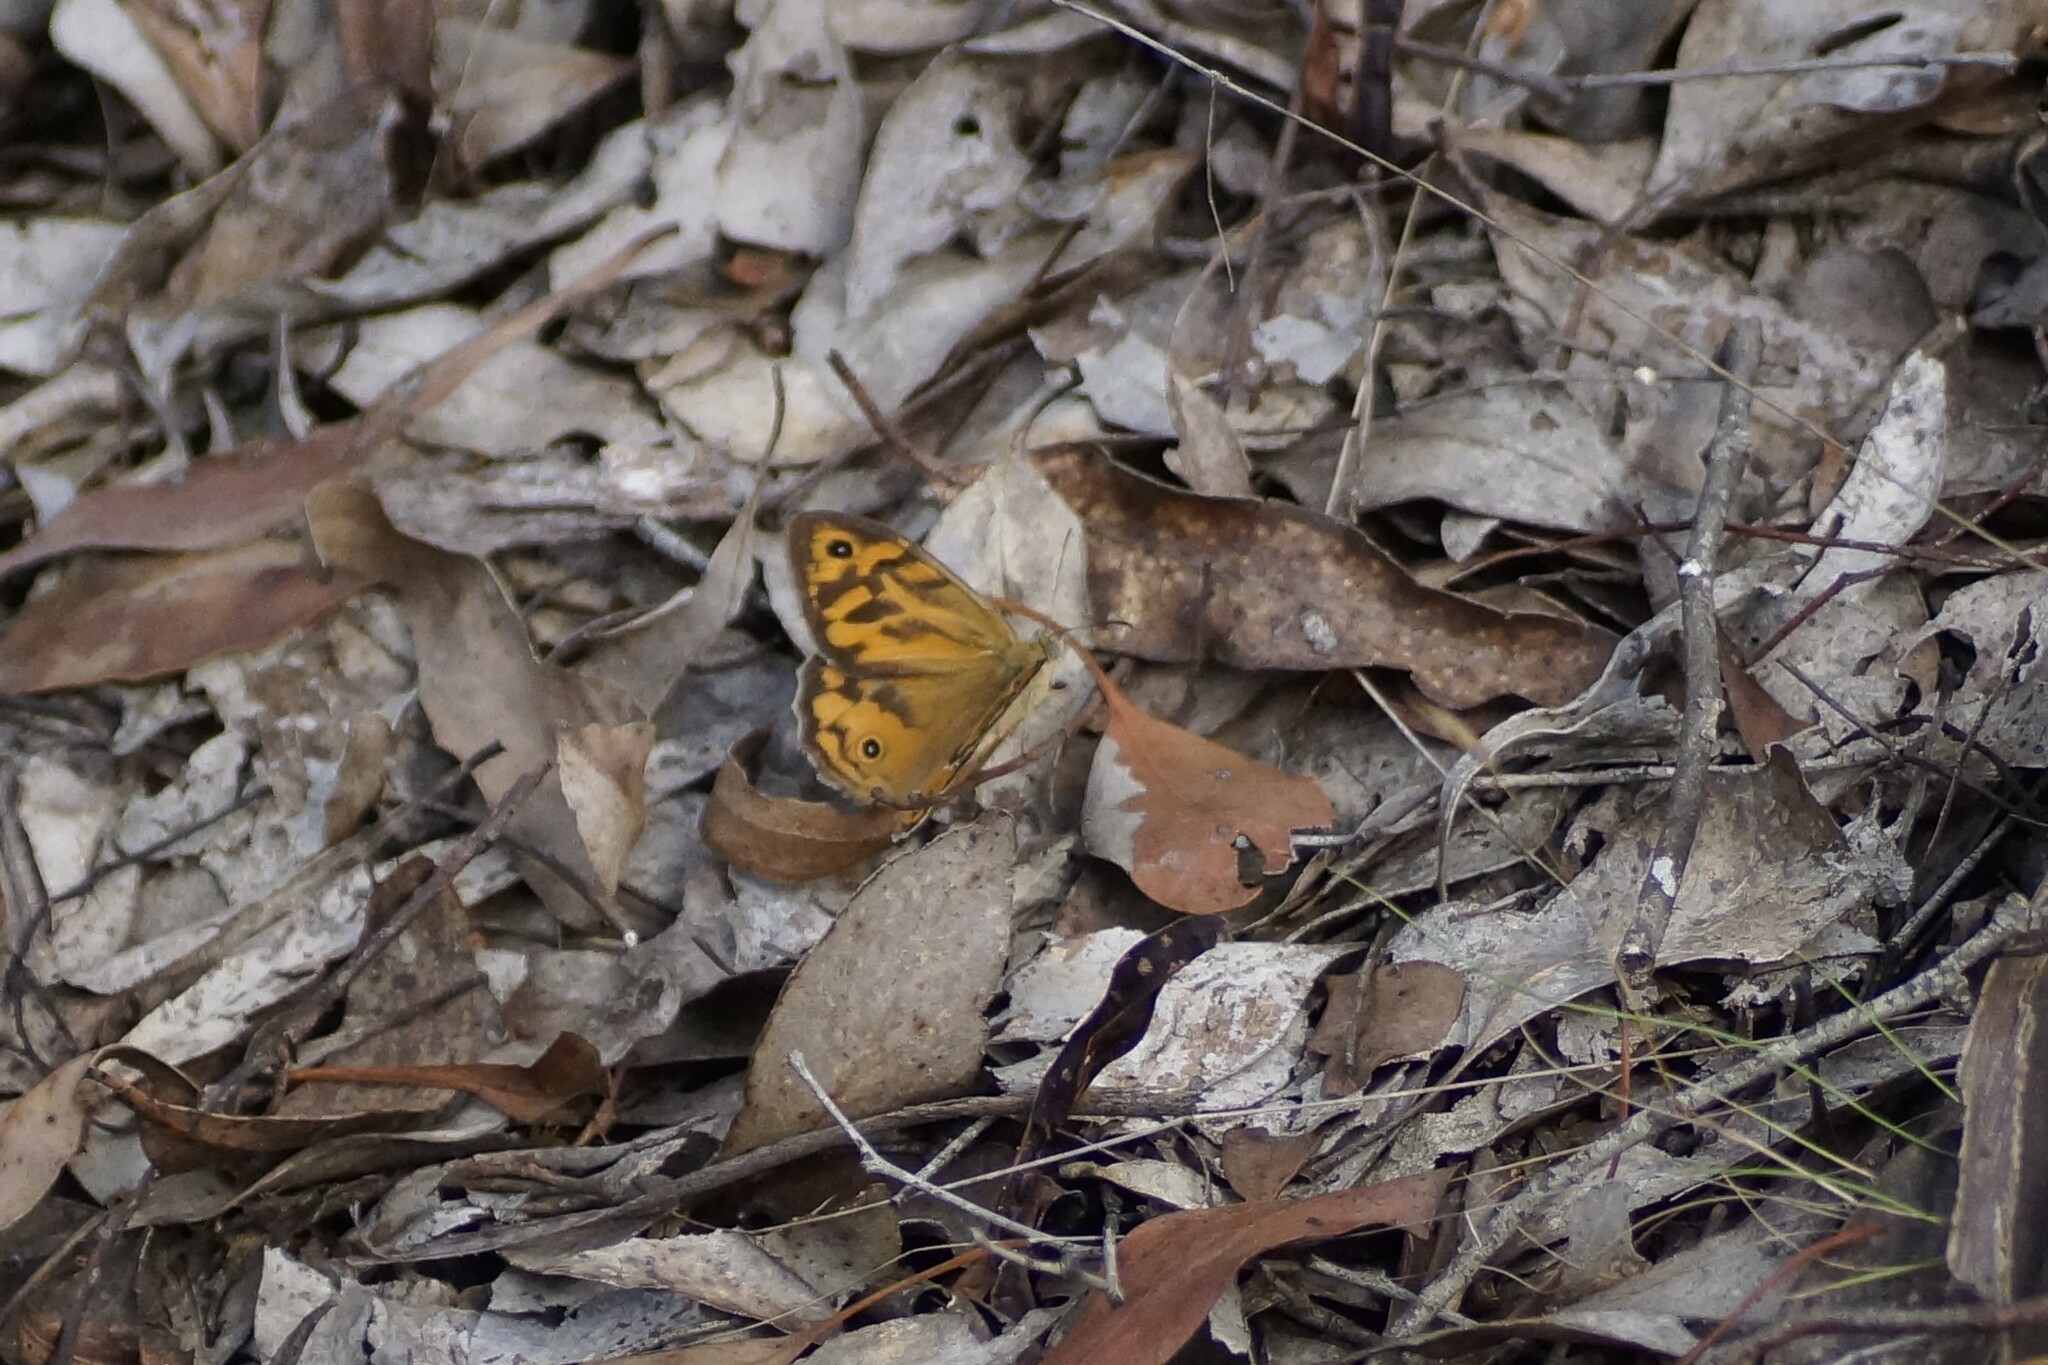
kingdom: Animalia
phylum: Arthropoda
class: Insecta
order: Lepidoptera
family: Nymphalidae
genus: Heteronympha
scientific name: Heteronympha merope
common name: Common brown
